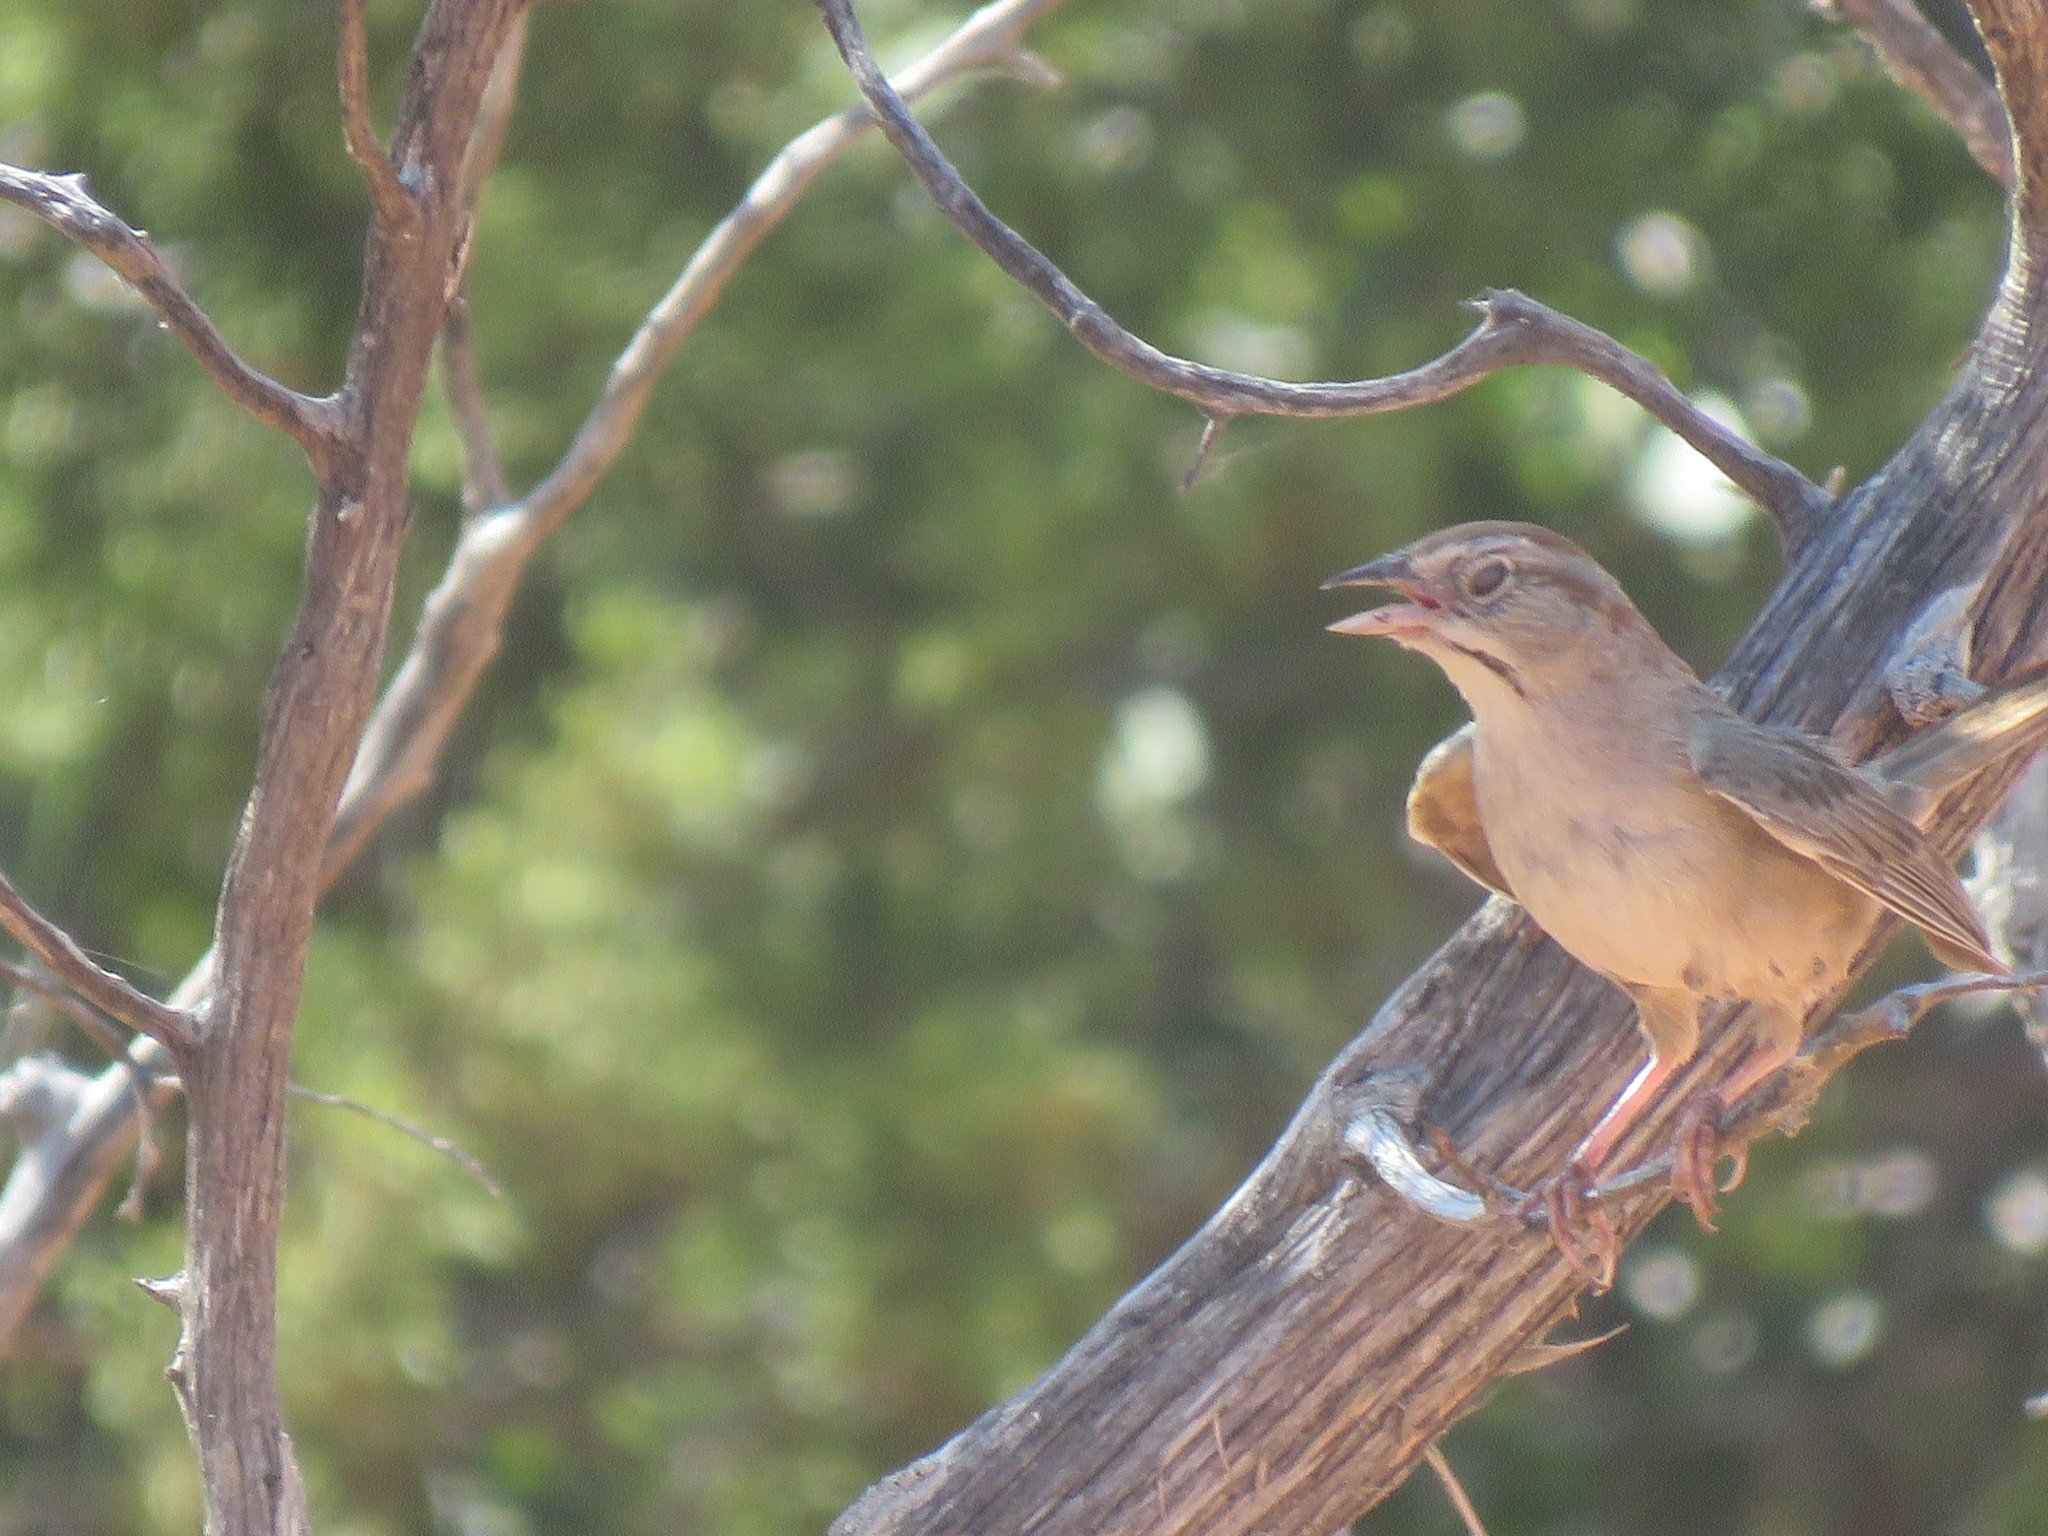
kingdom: Animalia
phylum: Chordata
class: Aves
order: Passeriformes
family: Passerellidae
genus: Aimophila
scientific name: Aimophila ruficeps
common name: Rufous-crowned sparrow
